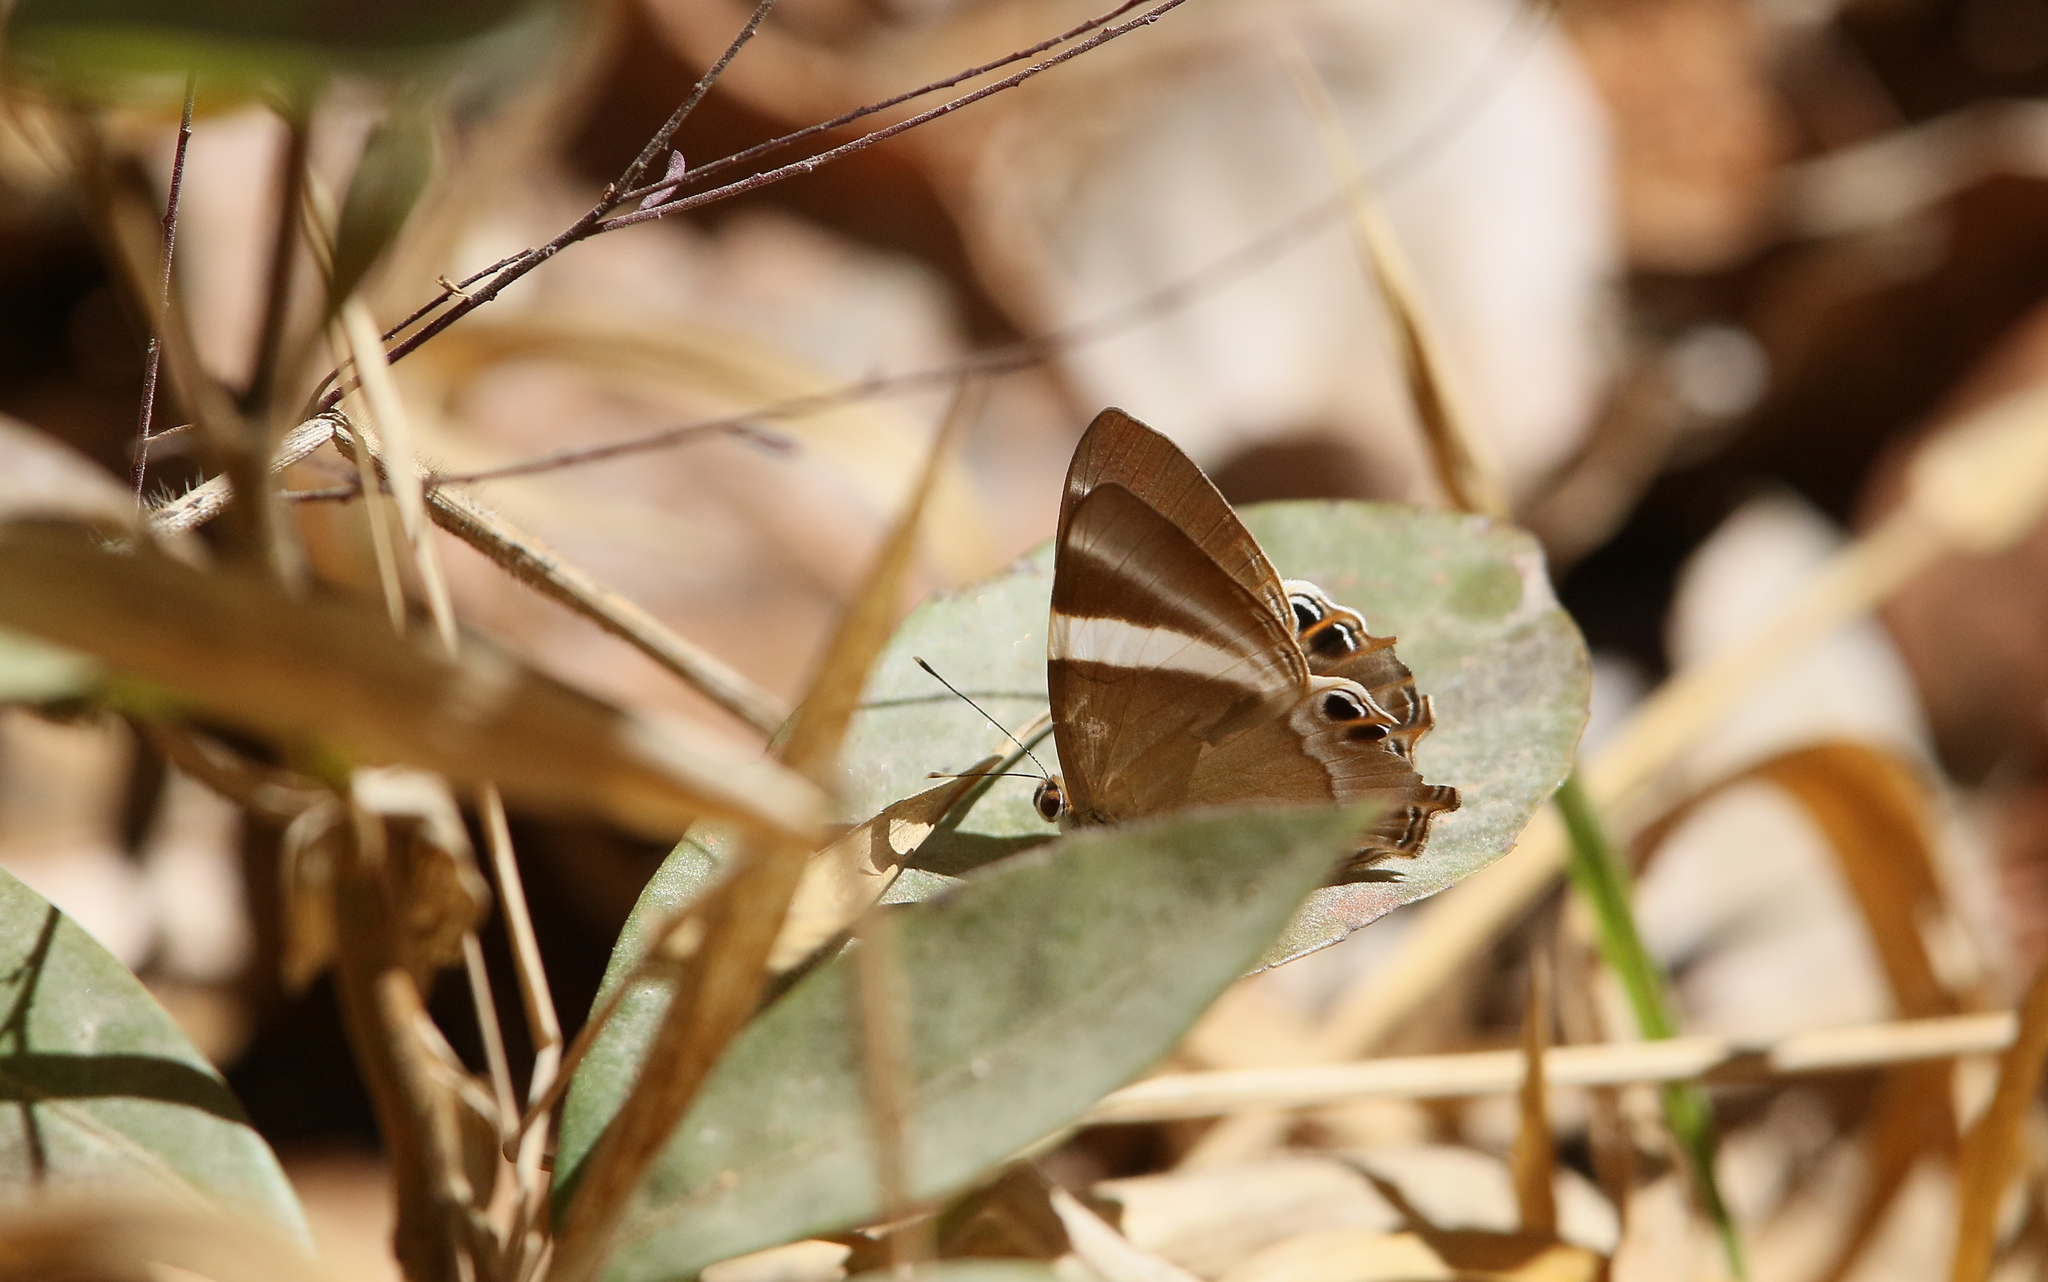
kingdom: Animalia
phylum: Arthropoda
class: Insecta
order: Lepidoptera
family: Lycaenidae
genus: Abisara
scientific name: Abisara neophron
